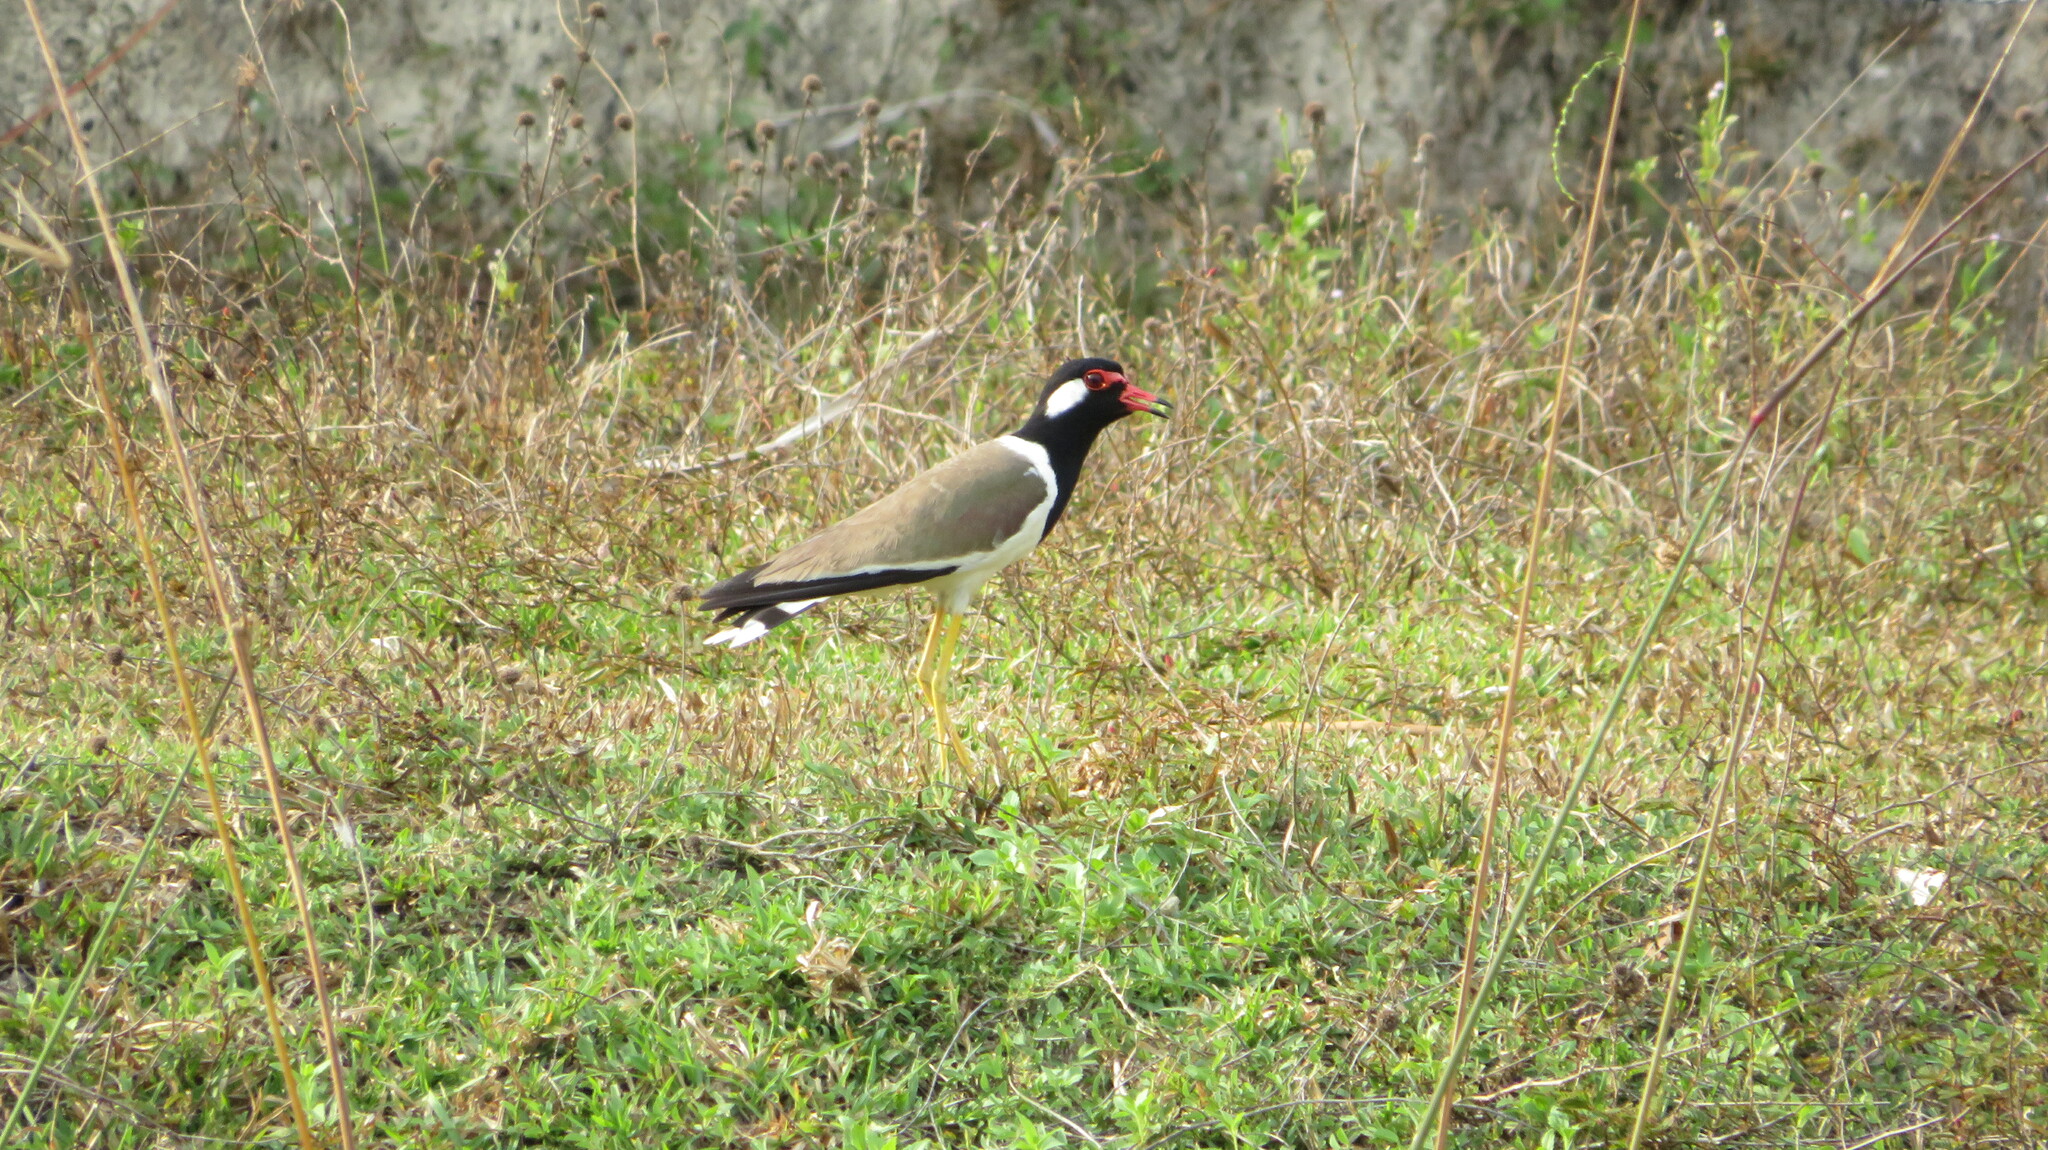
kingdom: Animalia
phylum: Chordata
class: Aves
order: Charadriiformes
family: Charadriidae
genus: Vanellus
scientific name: Vanellus indicus
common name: Red-wattled lapwing
